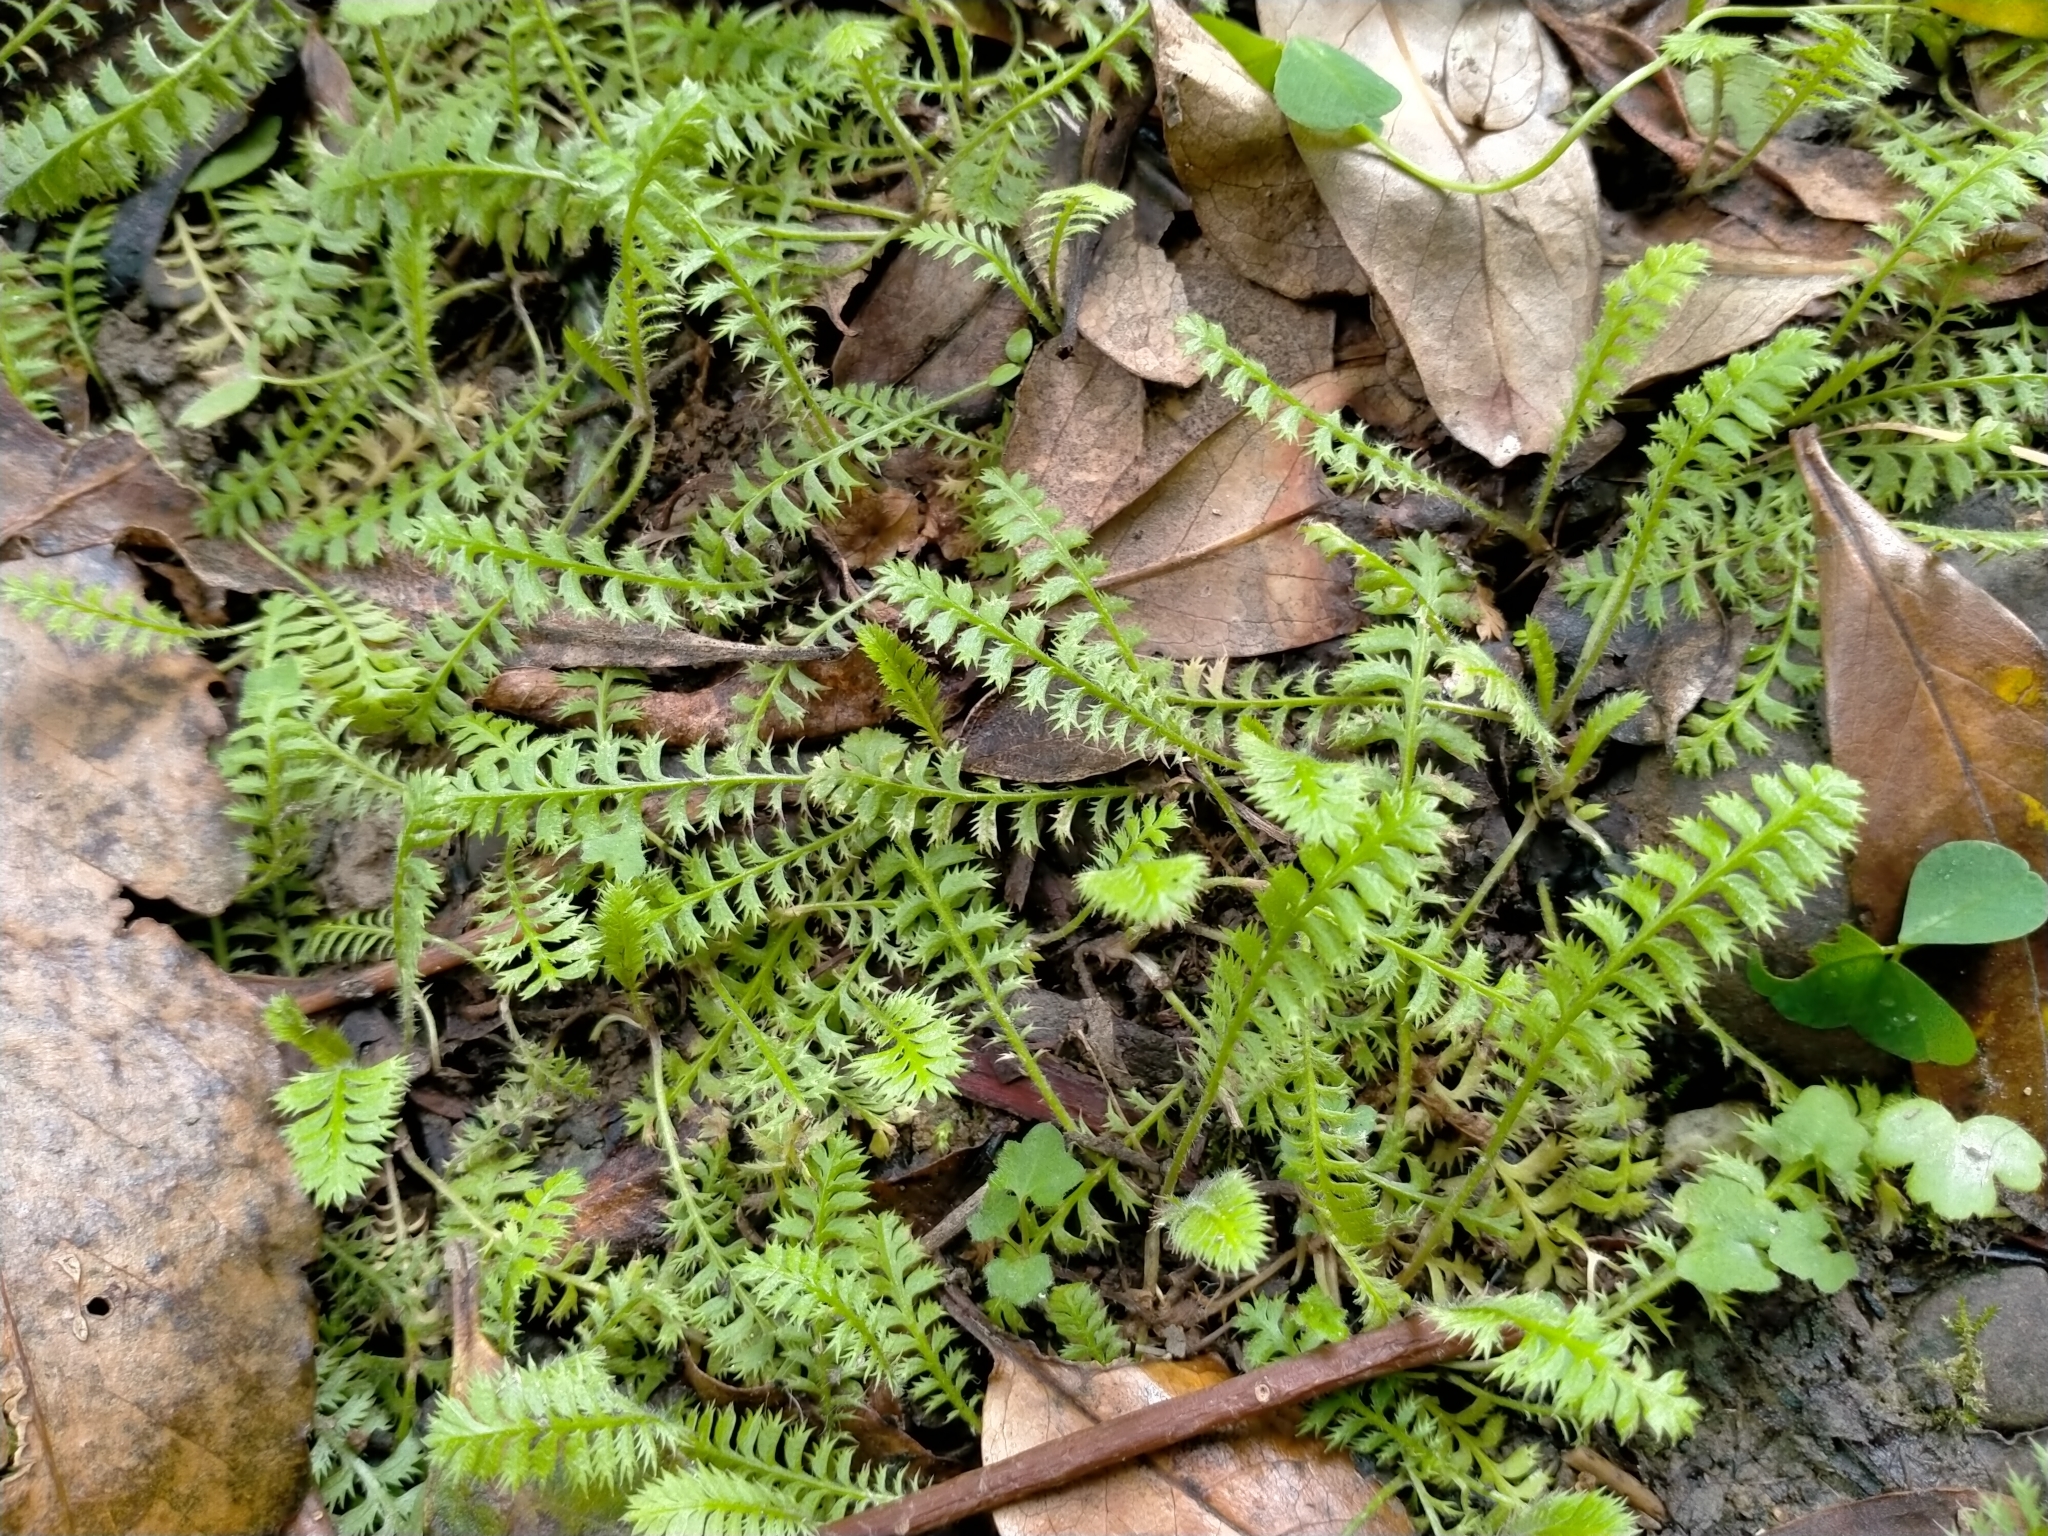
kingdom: Plantae
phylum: Tracheophyta
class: Magnoliopsida
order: Asterales
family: Asteraceae
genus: Leptinella
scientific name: Leptinella squalida
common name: New zealand brass-buttons
